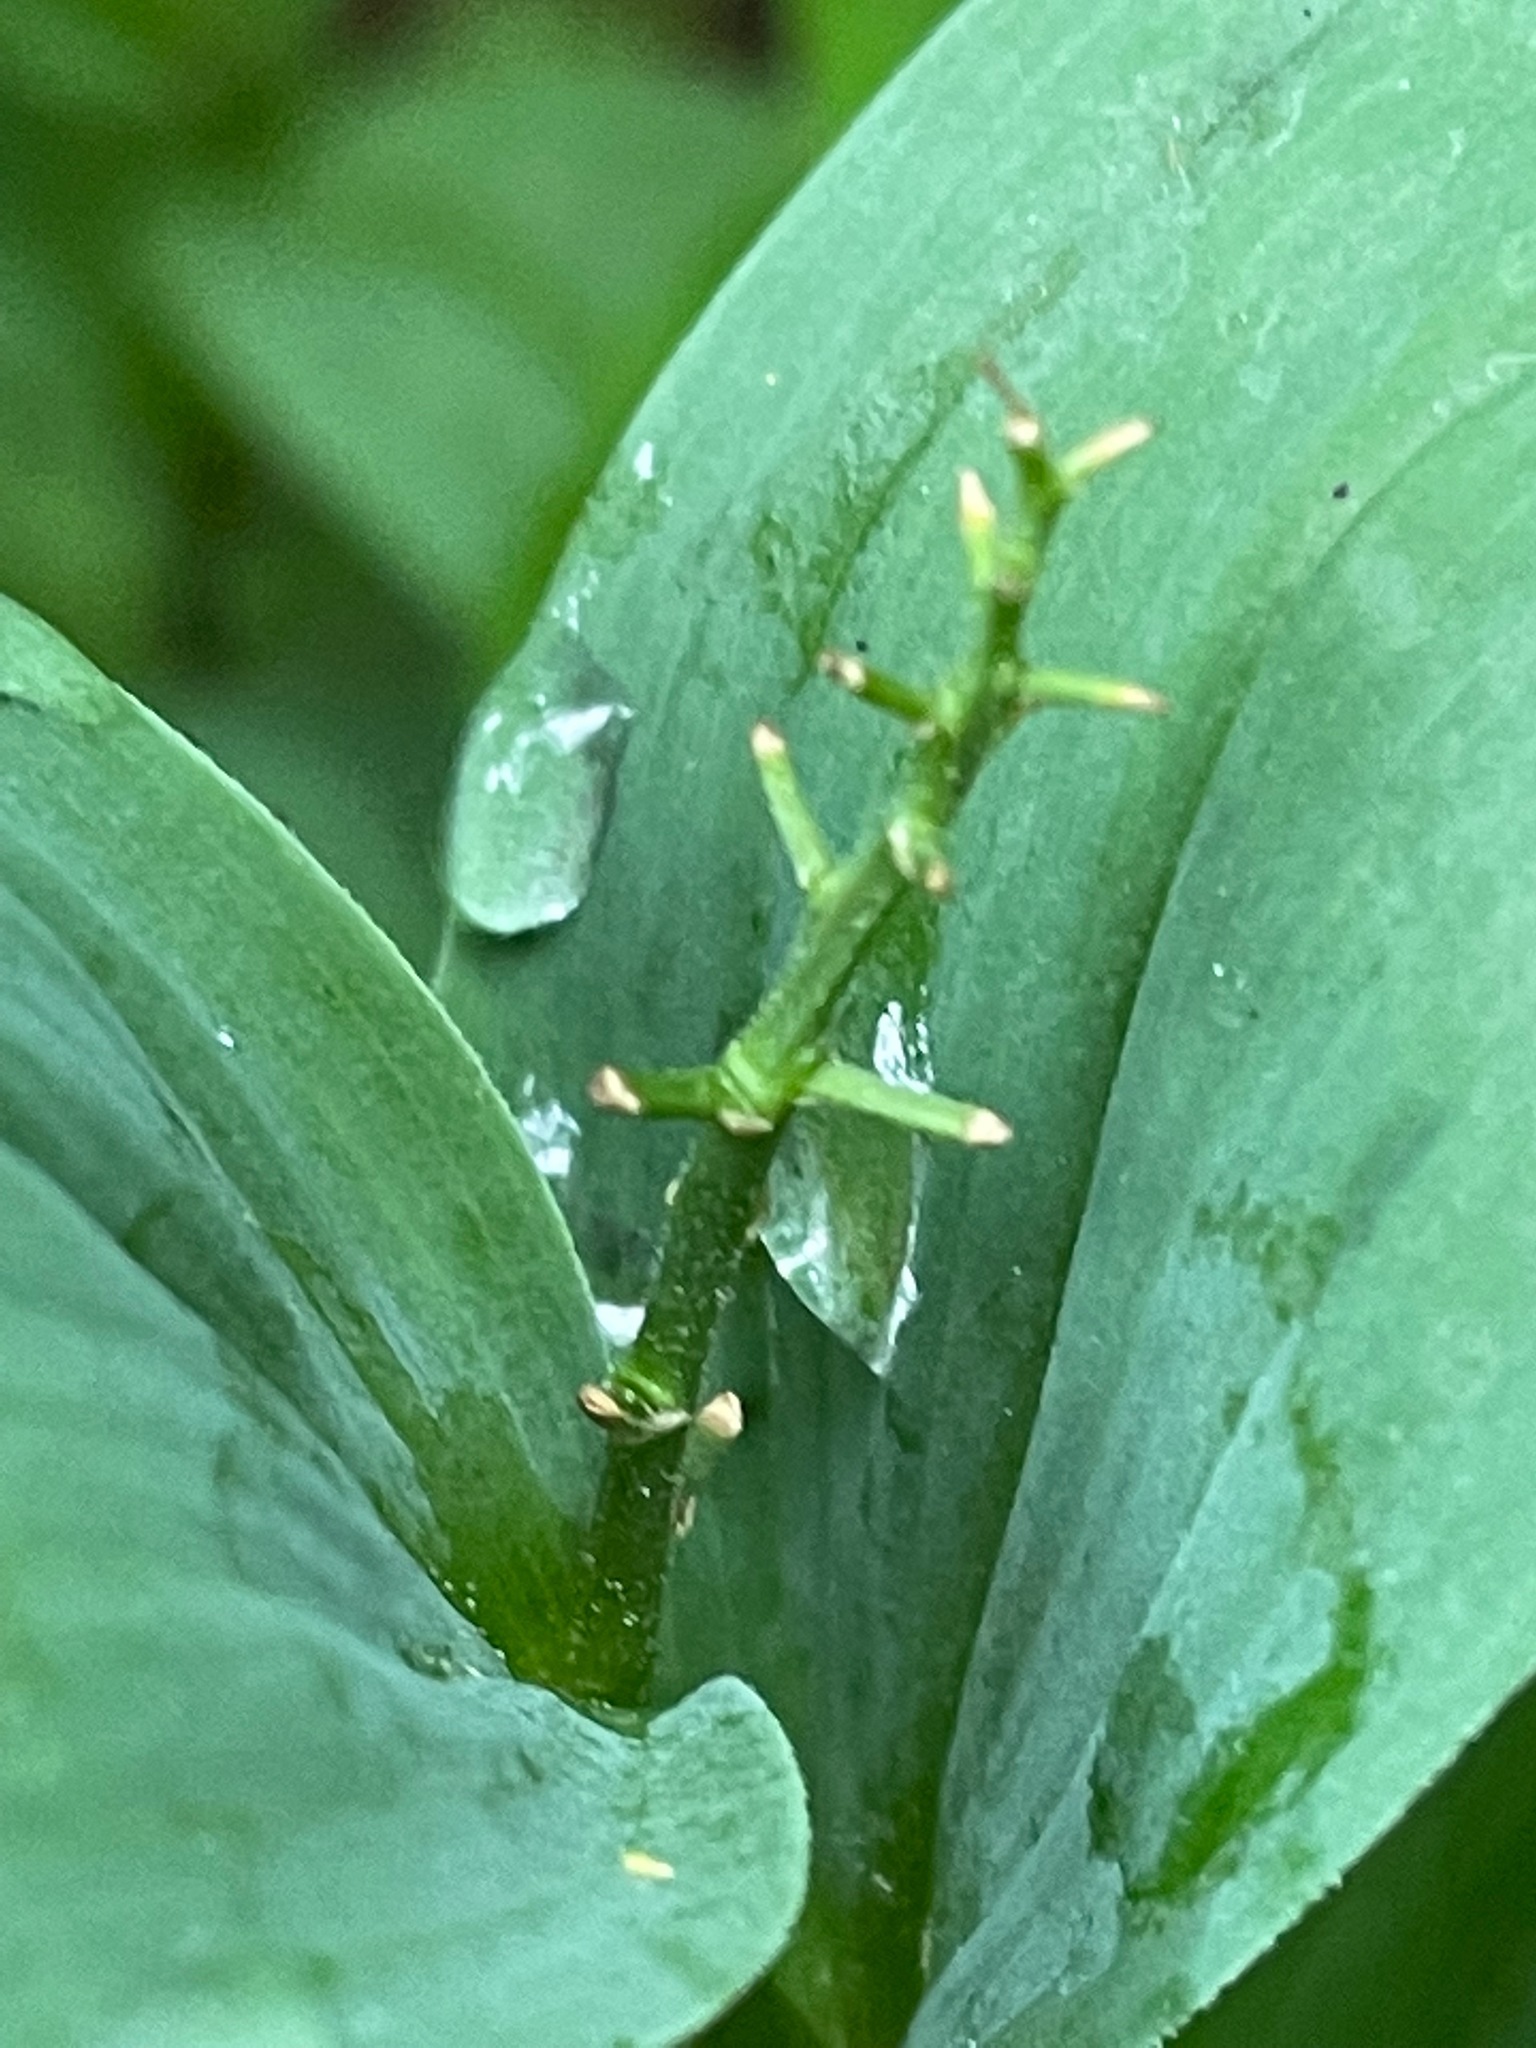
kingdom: Plantae
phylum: Tracheophyta
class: Liliopsida
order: Asparagales
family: Asparagaceae
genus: Maianthemum
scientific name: Maianthemum stellatum
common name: Little false solomon's seal
